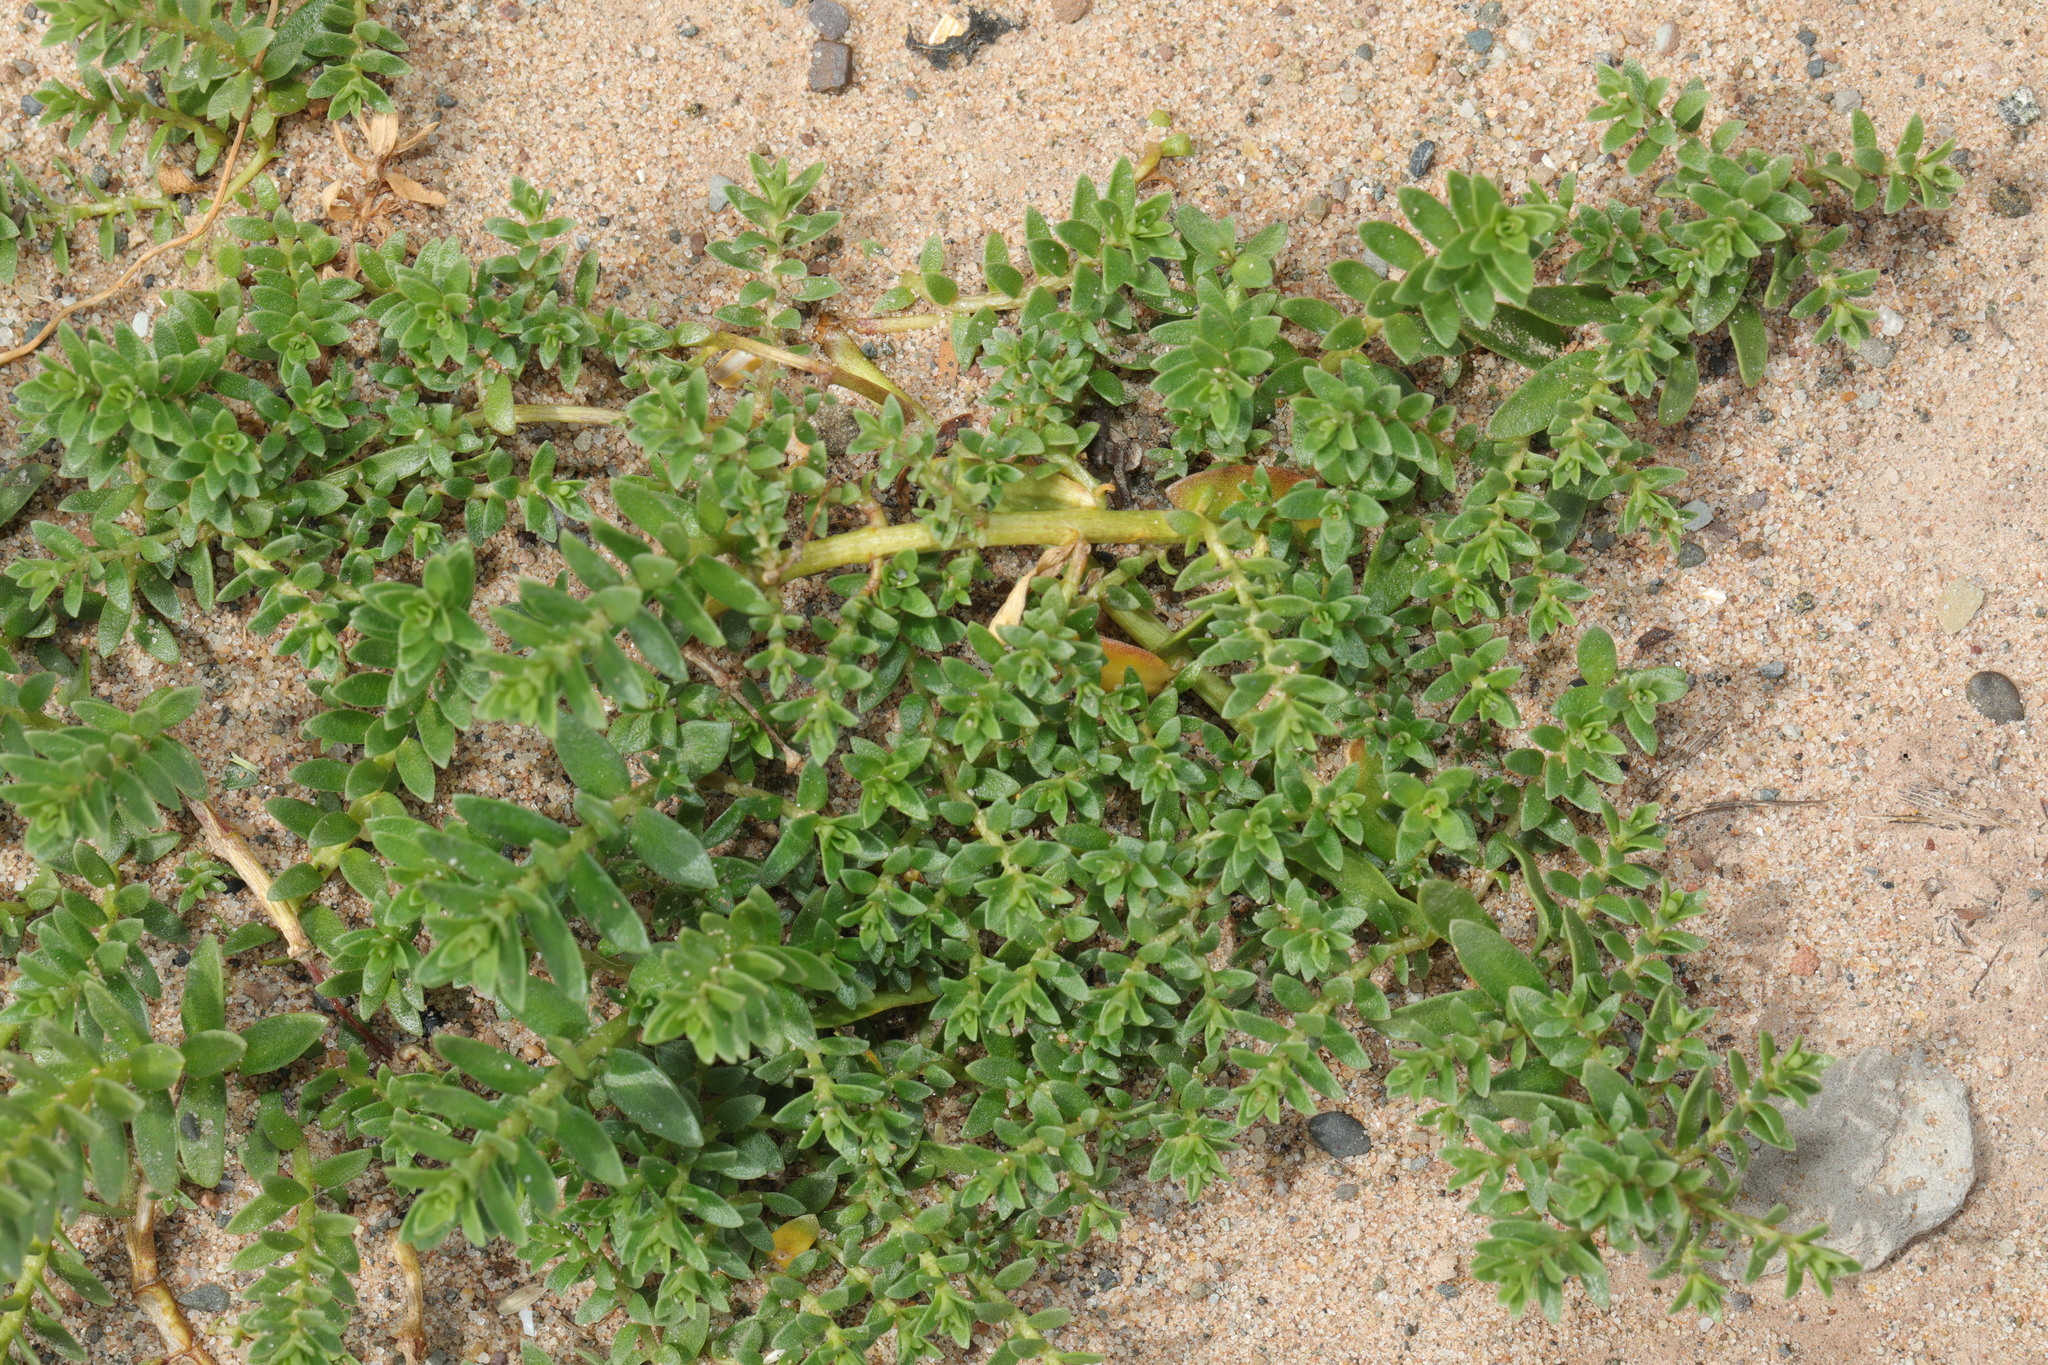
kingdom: Plantae
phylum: Tracheophyta
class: Magnoliopsida
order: Caryophyllales
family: Caryophyllaceae
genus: Honckenya
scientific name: Honckenya peploides
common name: Sea sandwort
